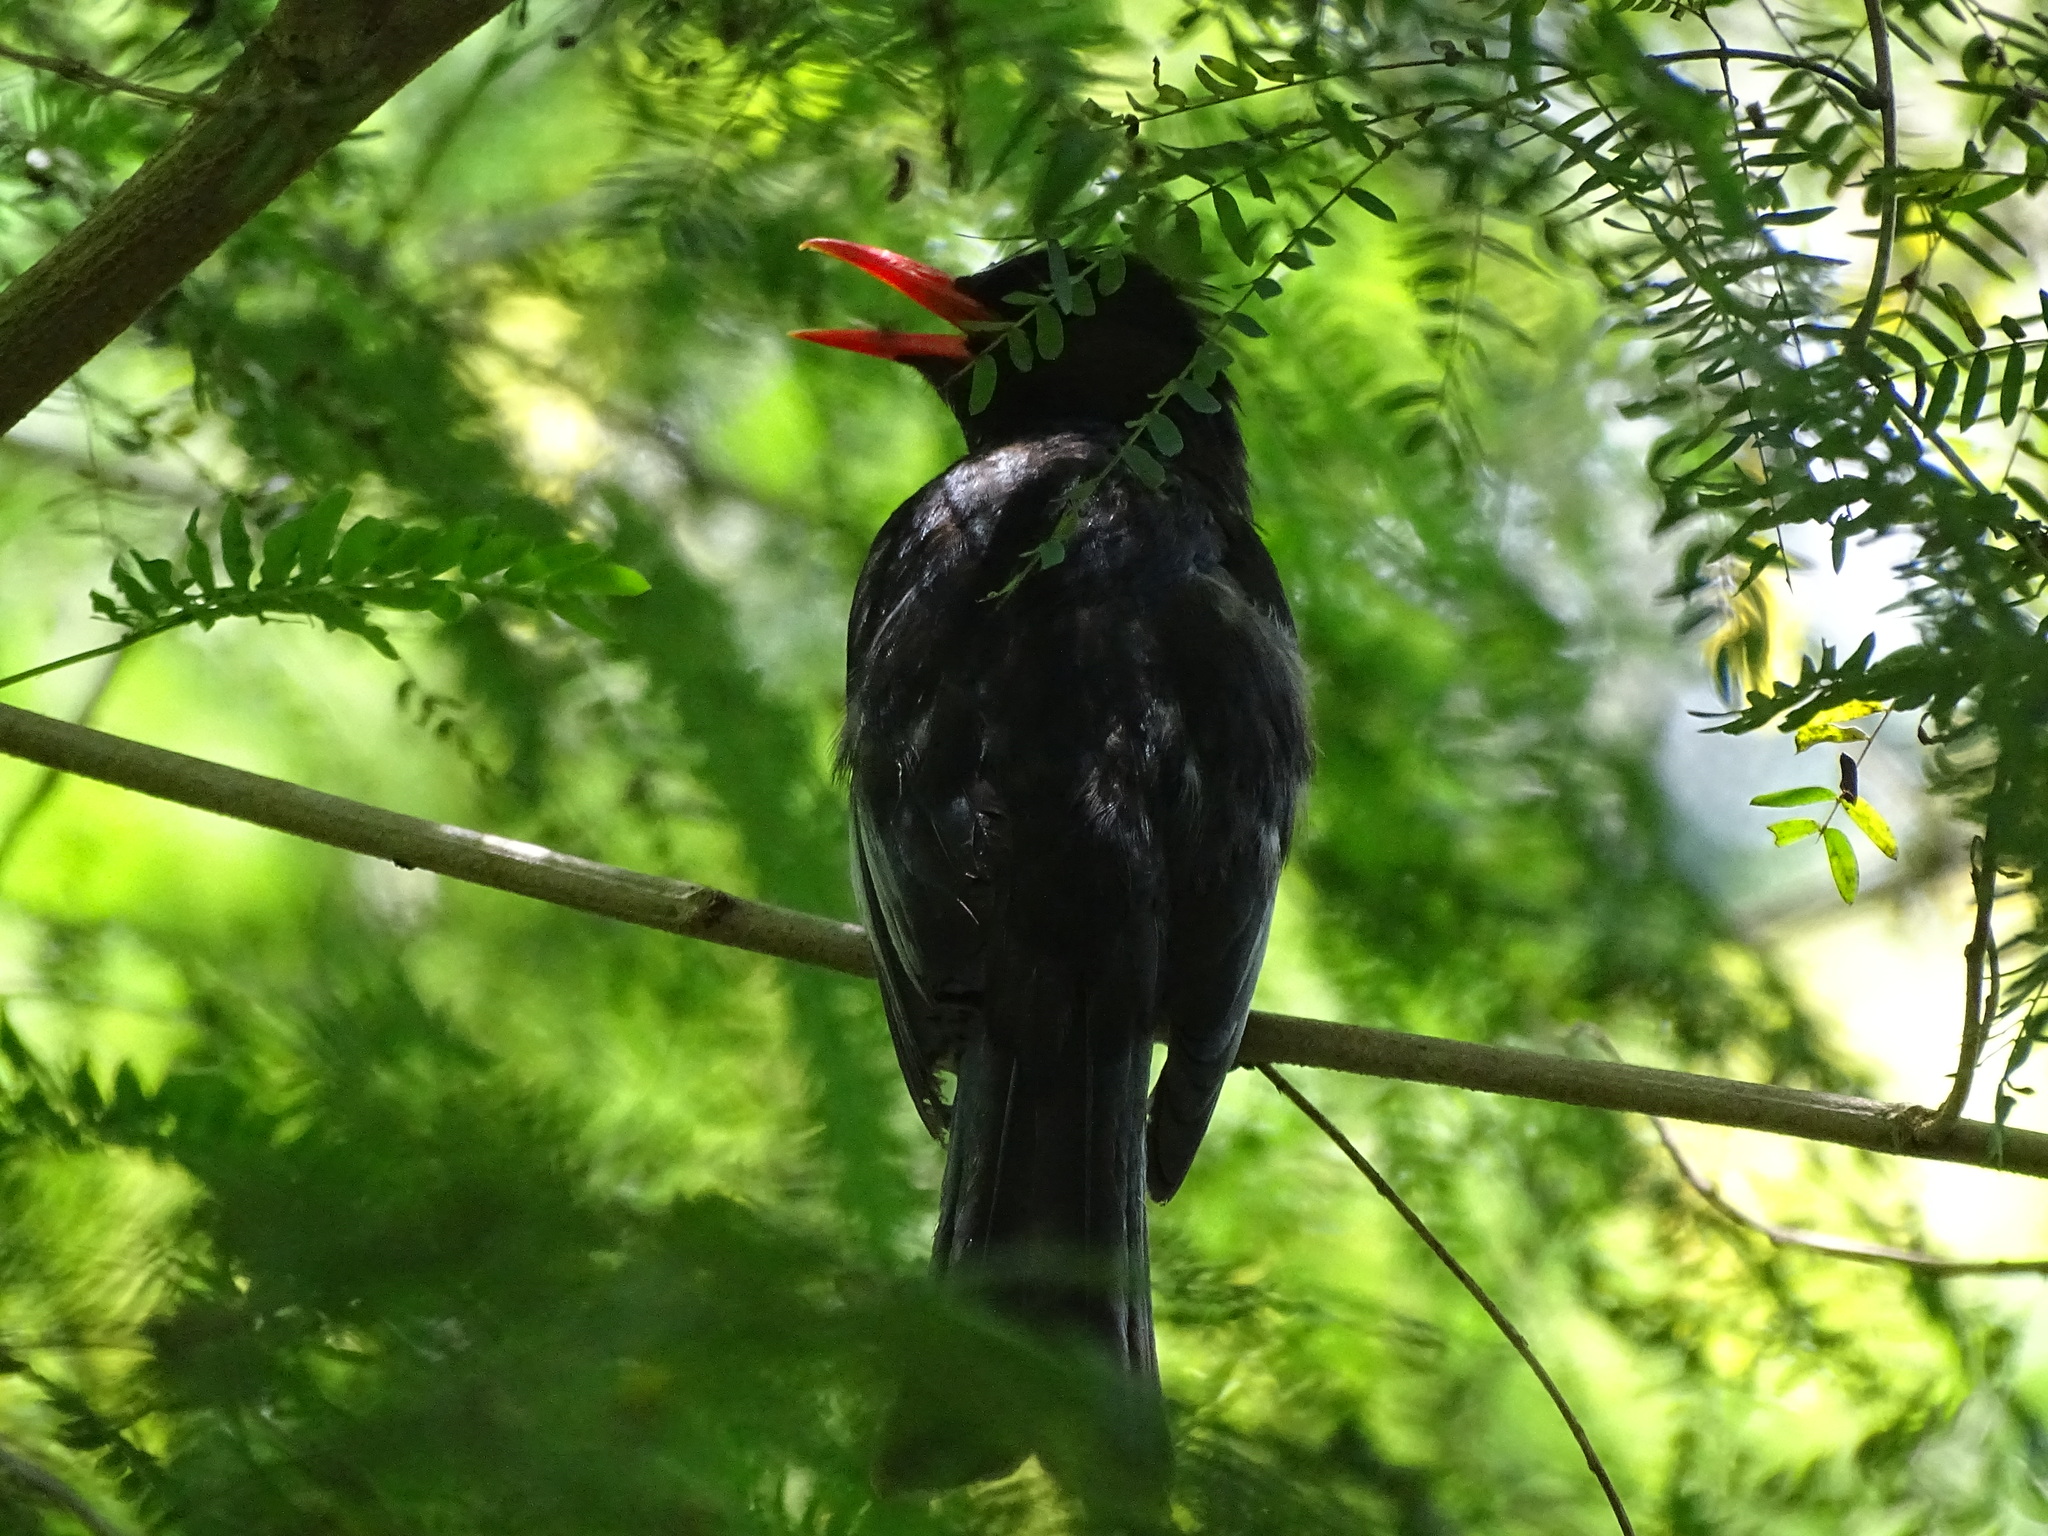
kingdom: Animalia
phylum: Chordata
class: Aves
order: Passeriformes
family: Pycnonotidae
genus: Hypsipetes
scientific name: Hypsipetes leucocephalus
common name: Black bulbul
